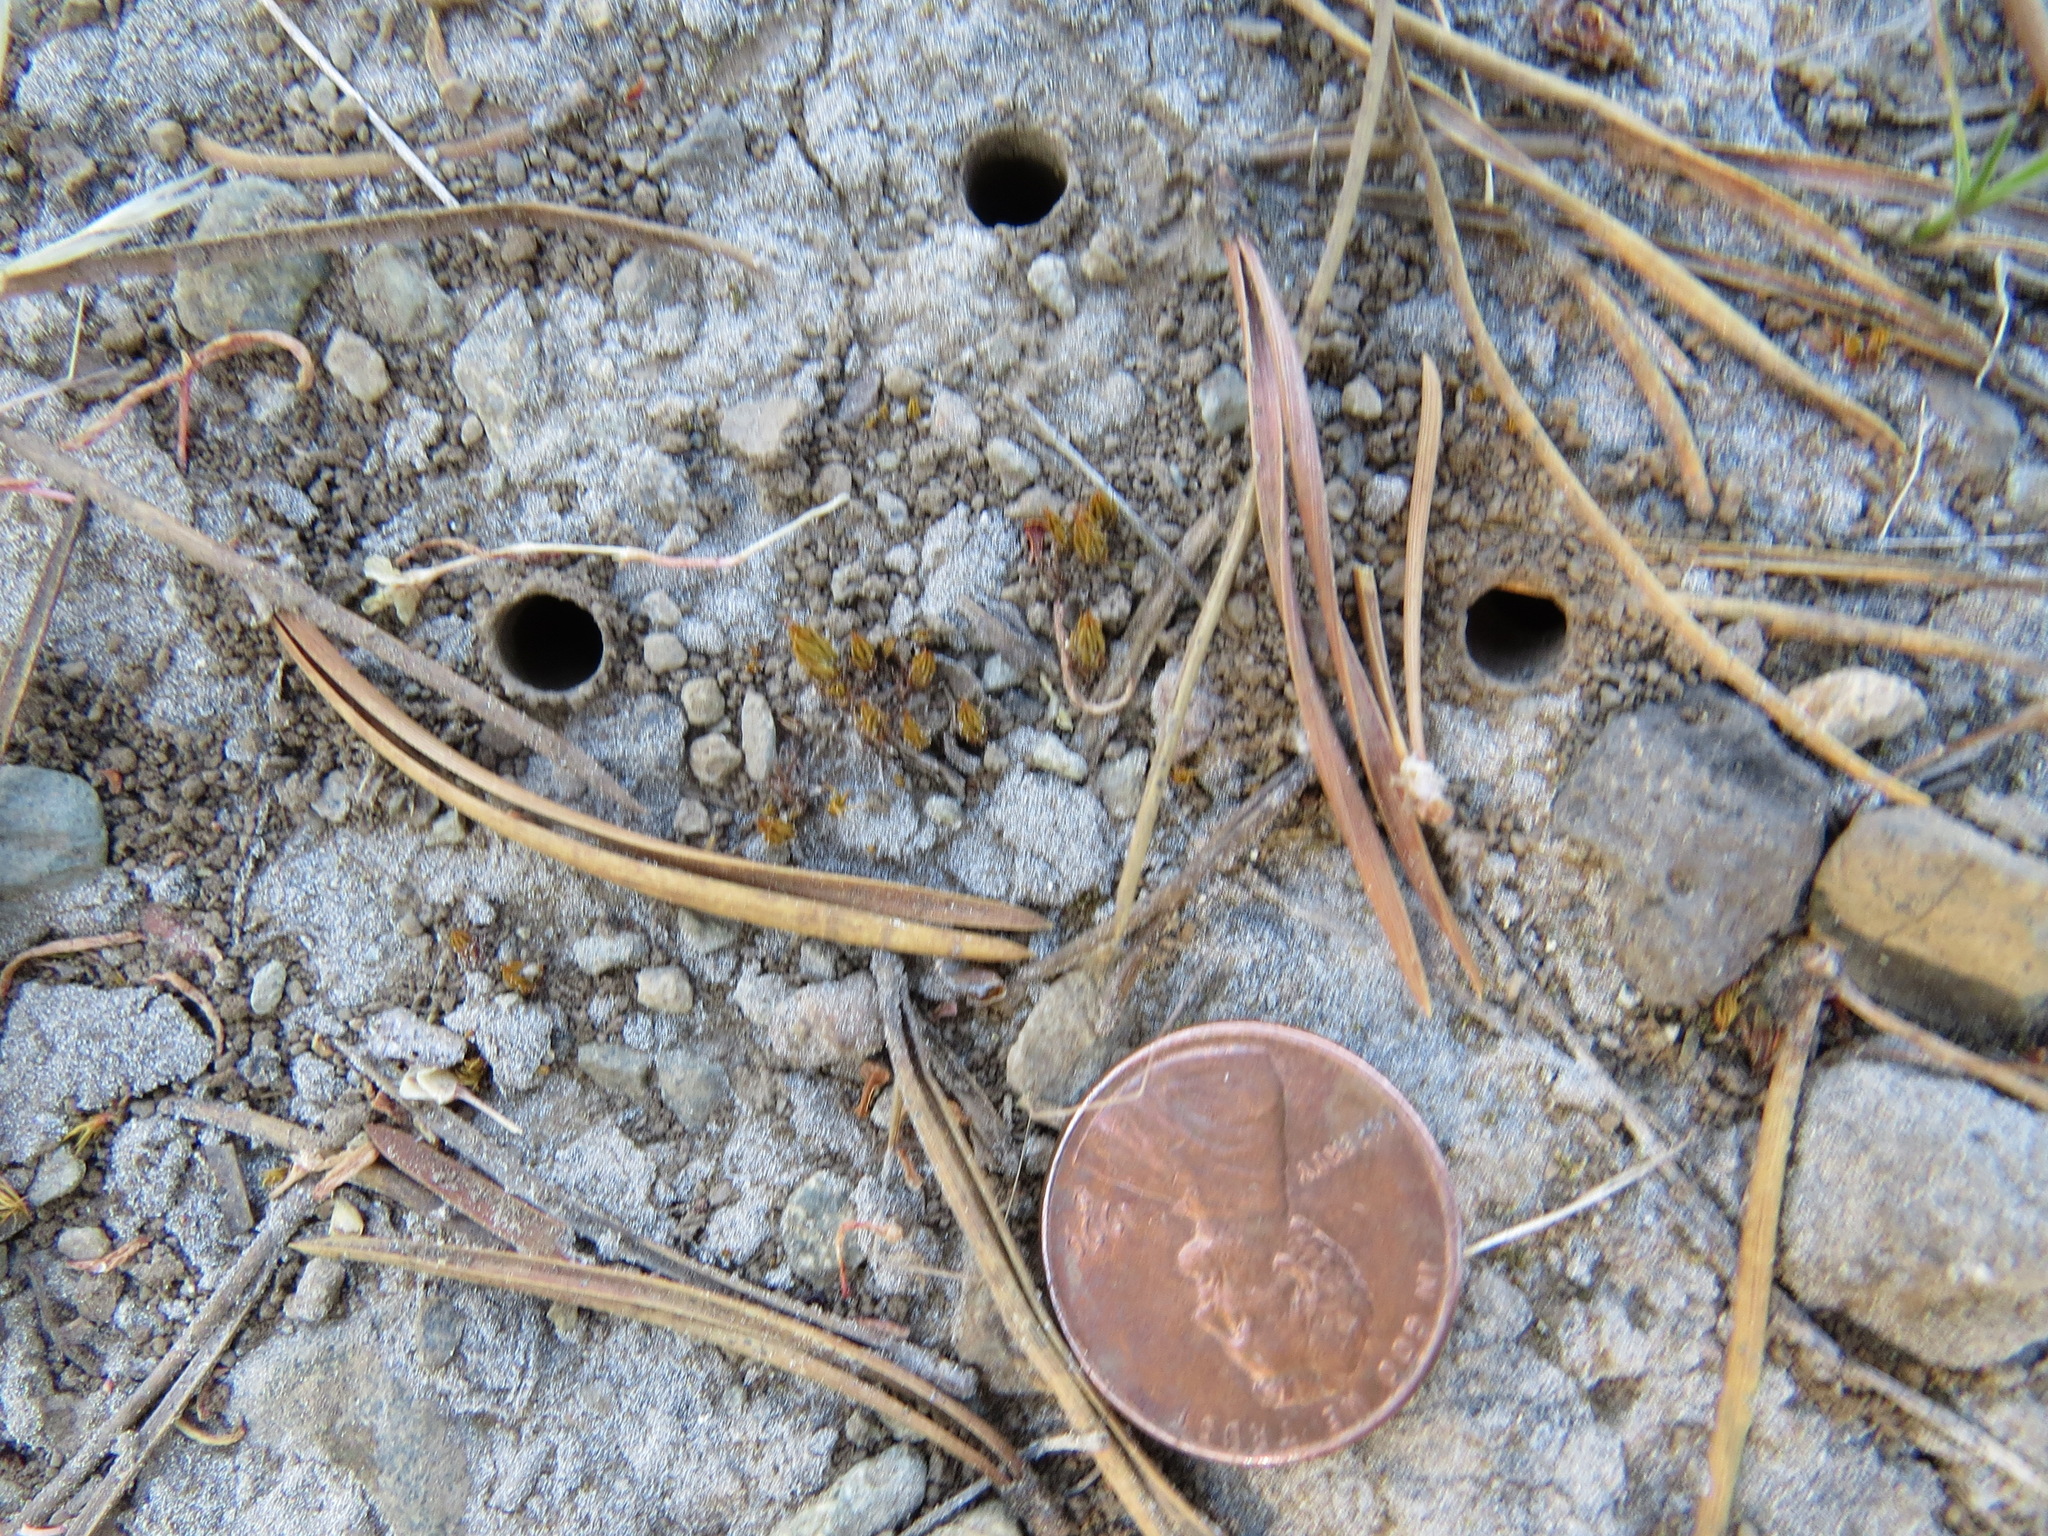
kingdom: Animalia
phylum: Arthropoda
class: Insecta
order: Coleoptera
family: Carabidae
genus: Omus
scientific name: Omus californicus
